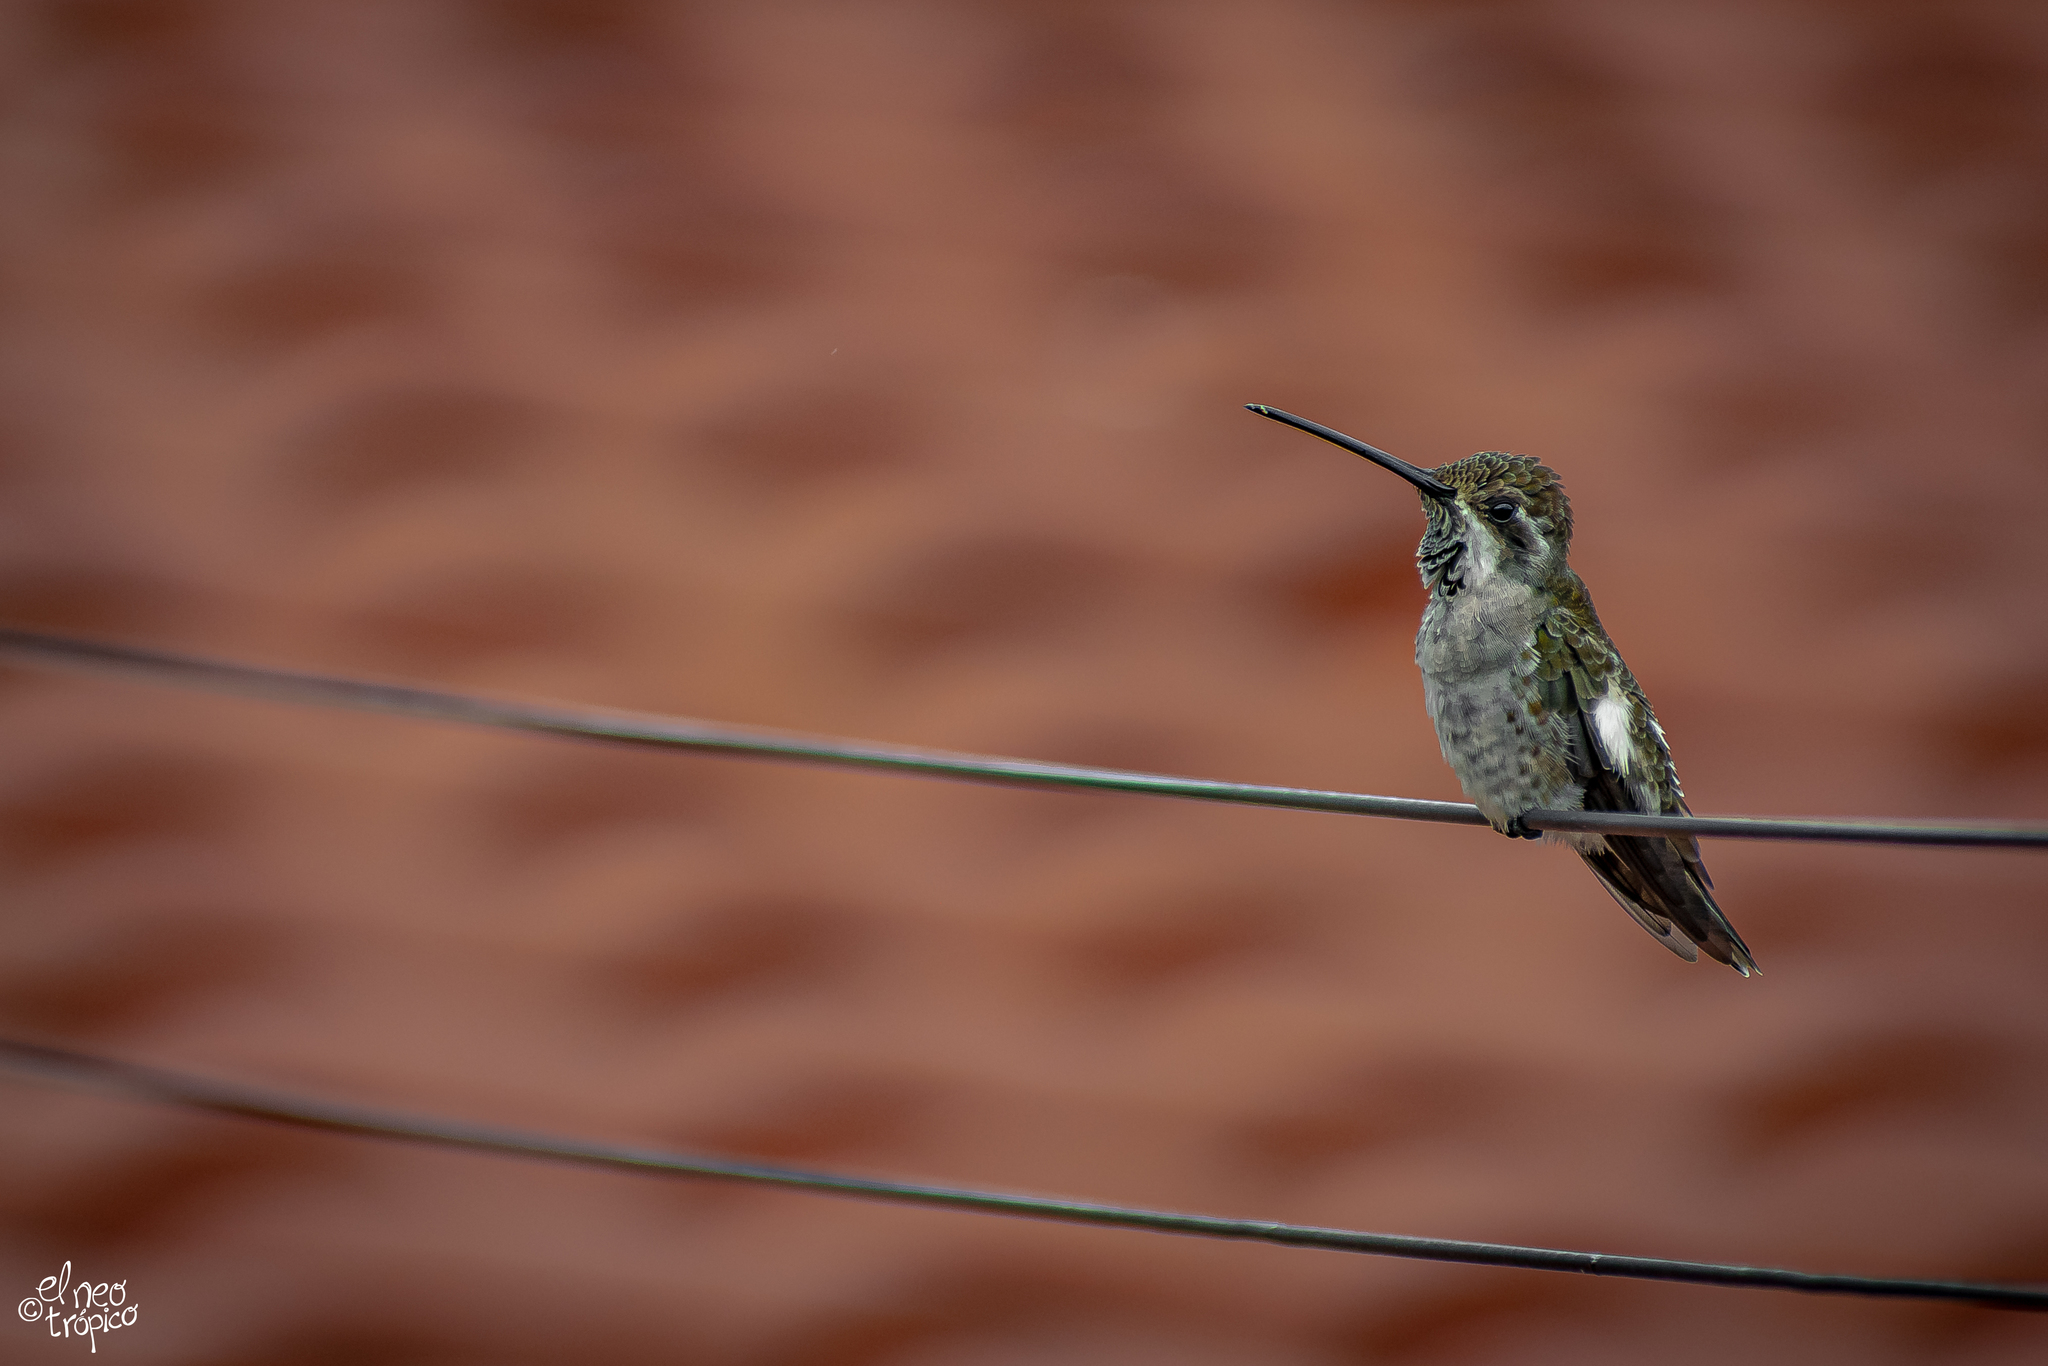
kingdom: Animalia
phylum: Chordata
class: Aves
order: Apodiformes
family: Trochilidae
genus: Heliomaster
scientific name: Heliomaster constantii
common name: Plain-capped starthroat
